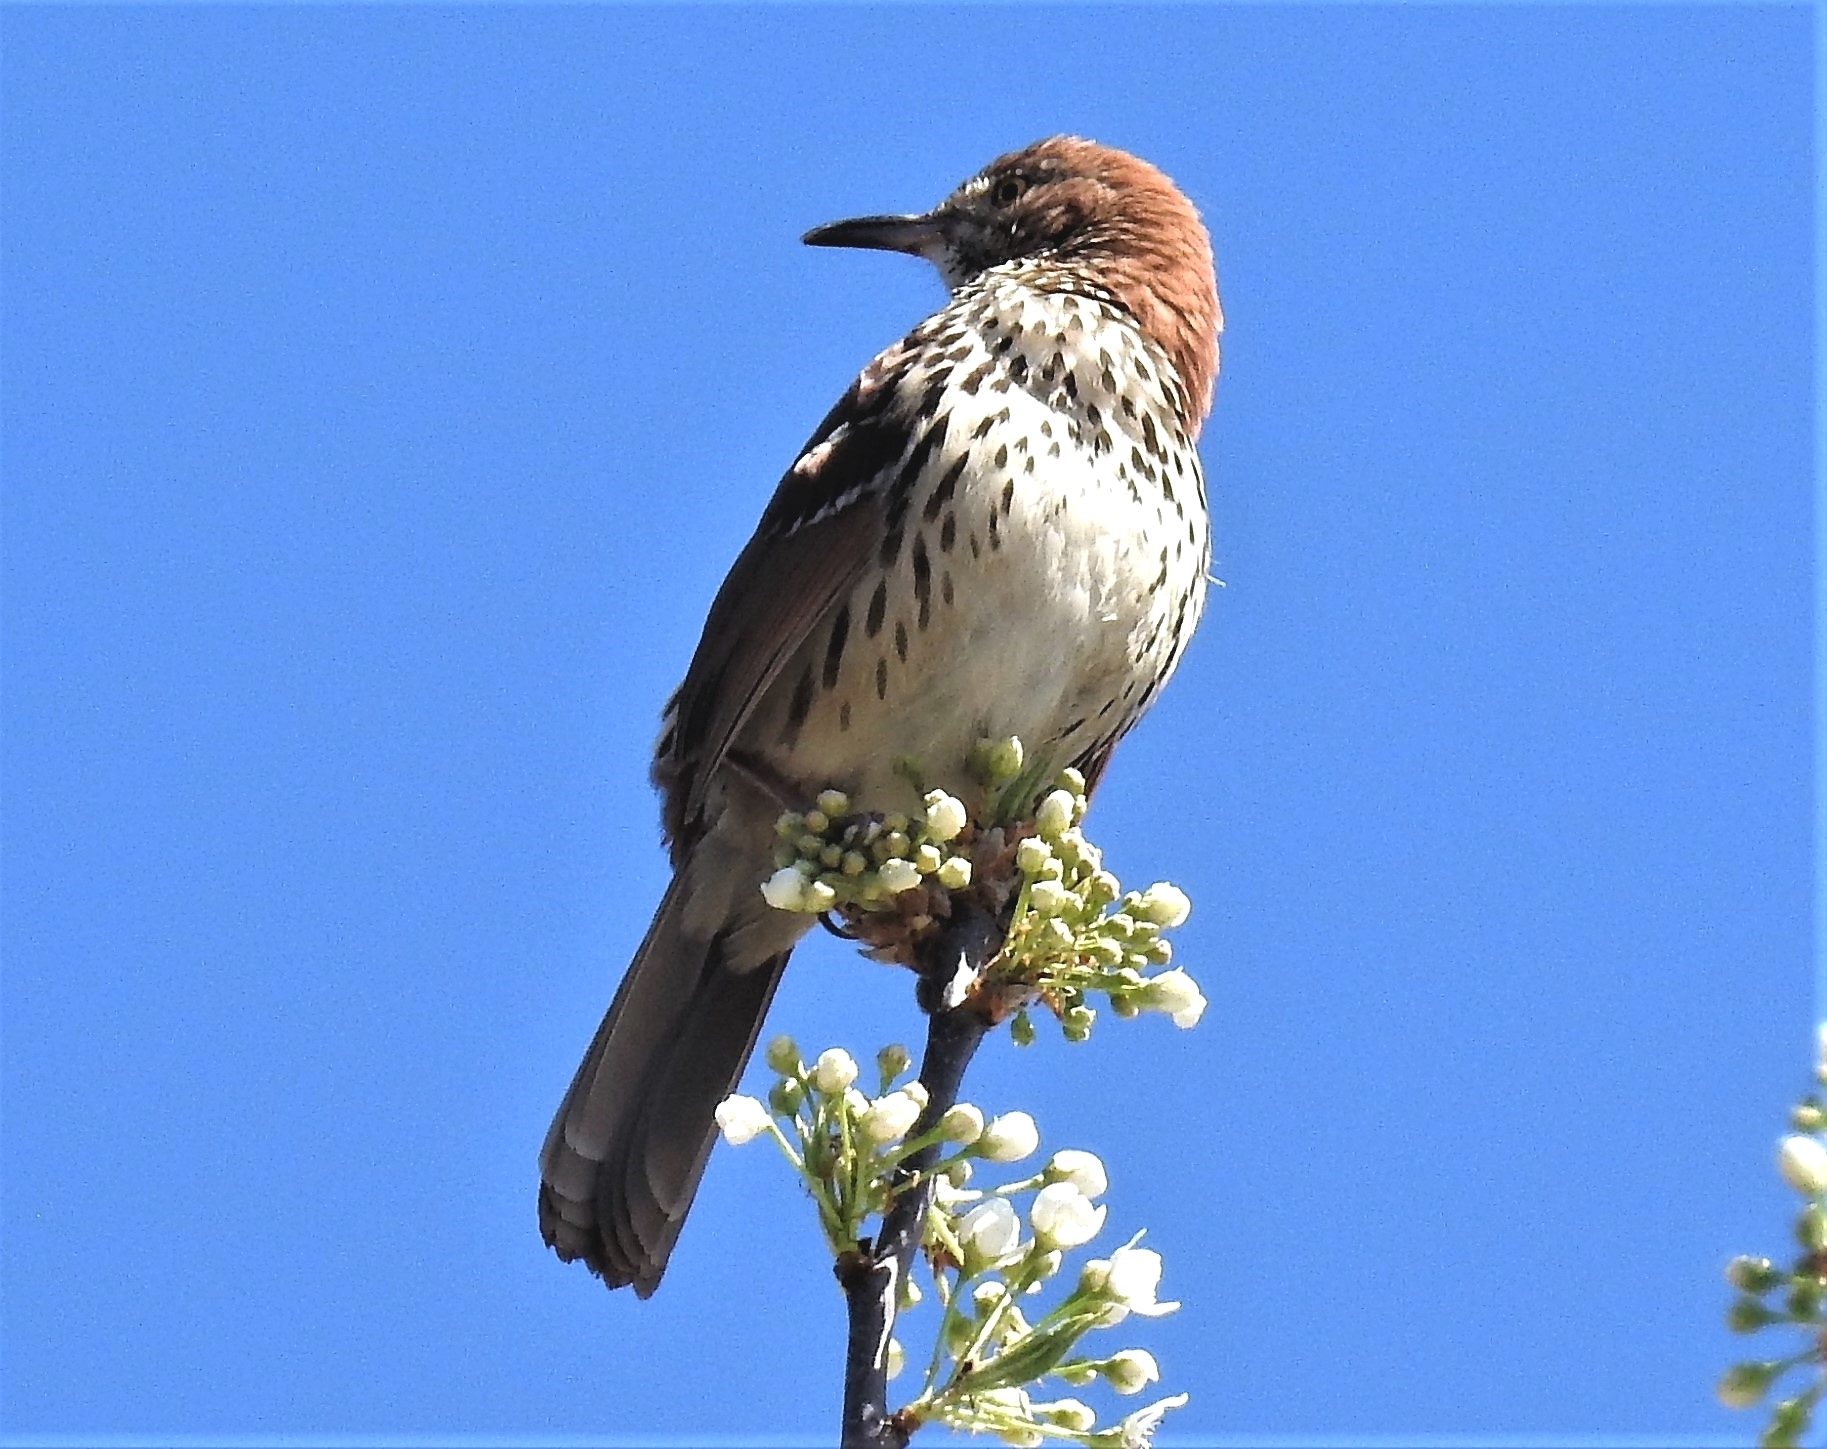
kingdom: Animalia
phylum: Chordata
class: Aves
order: Passeriformes
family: Mimidae
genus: Toxostoma
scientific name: Toxostoma rufum
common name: Brown thrasher
